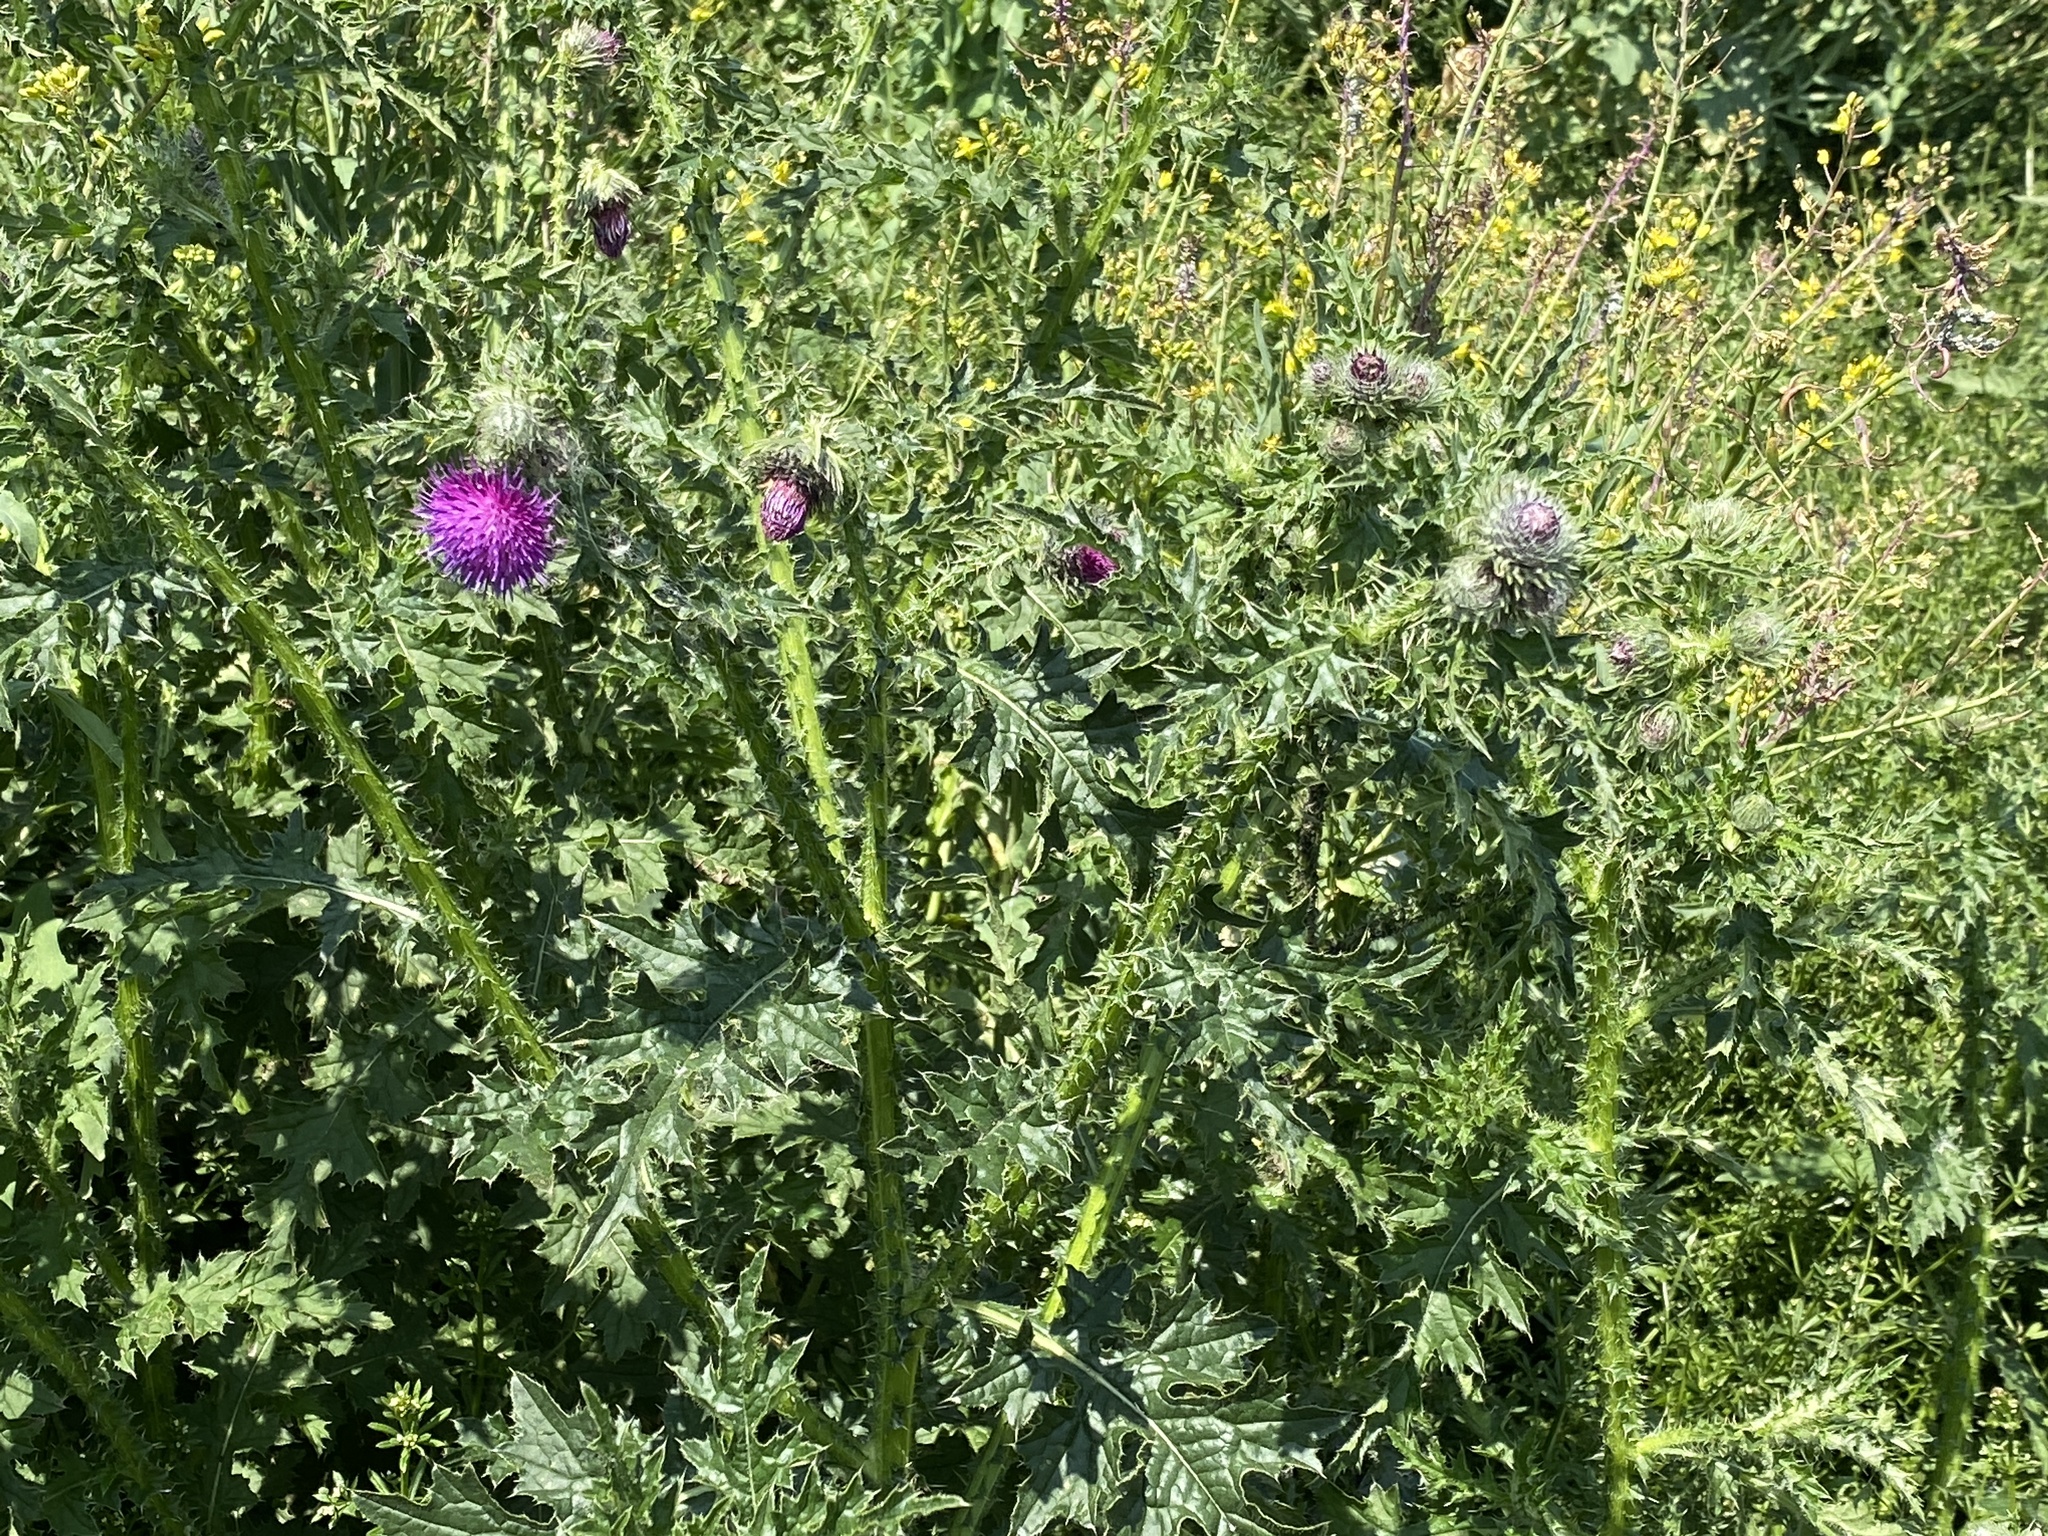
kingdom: Plantae
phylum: Tracheophyta
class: Magnoliopsida
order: Asterales
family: Asteraceae
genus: Carduus
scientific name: Carduus crispus
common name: Welted thistle
